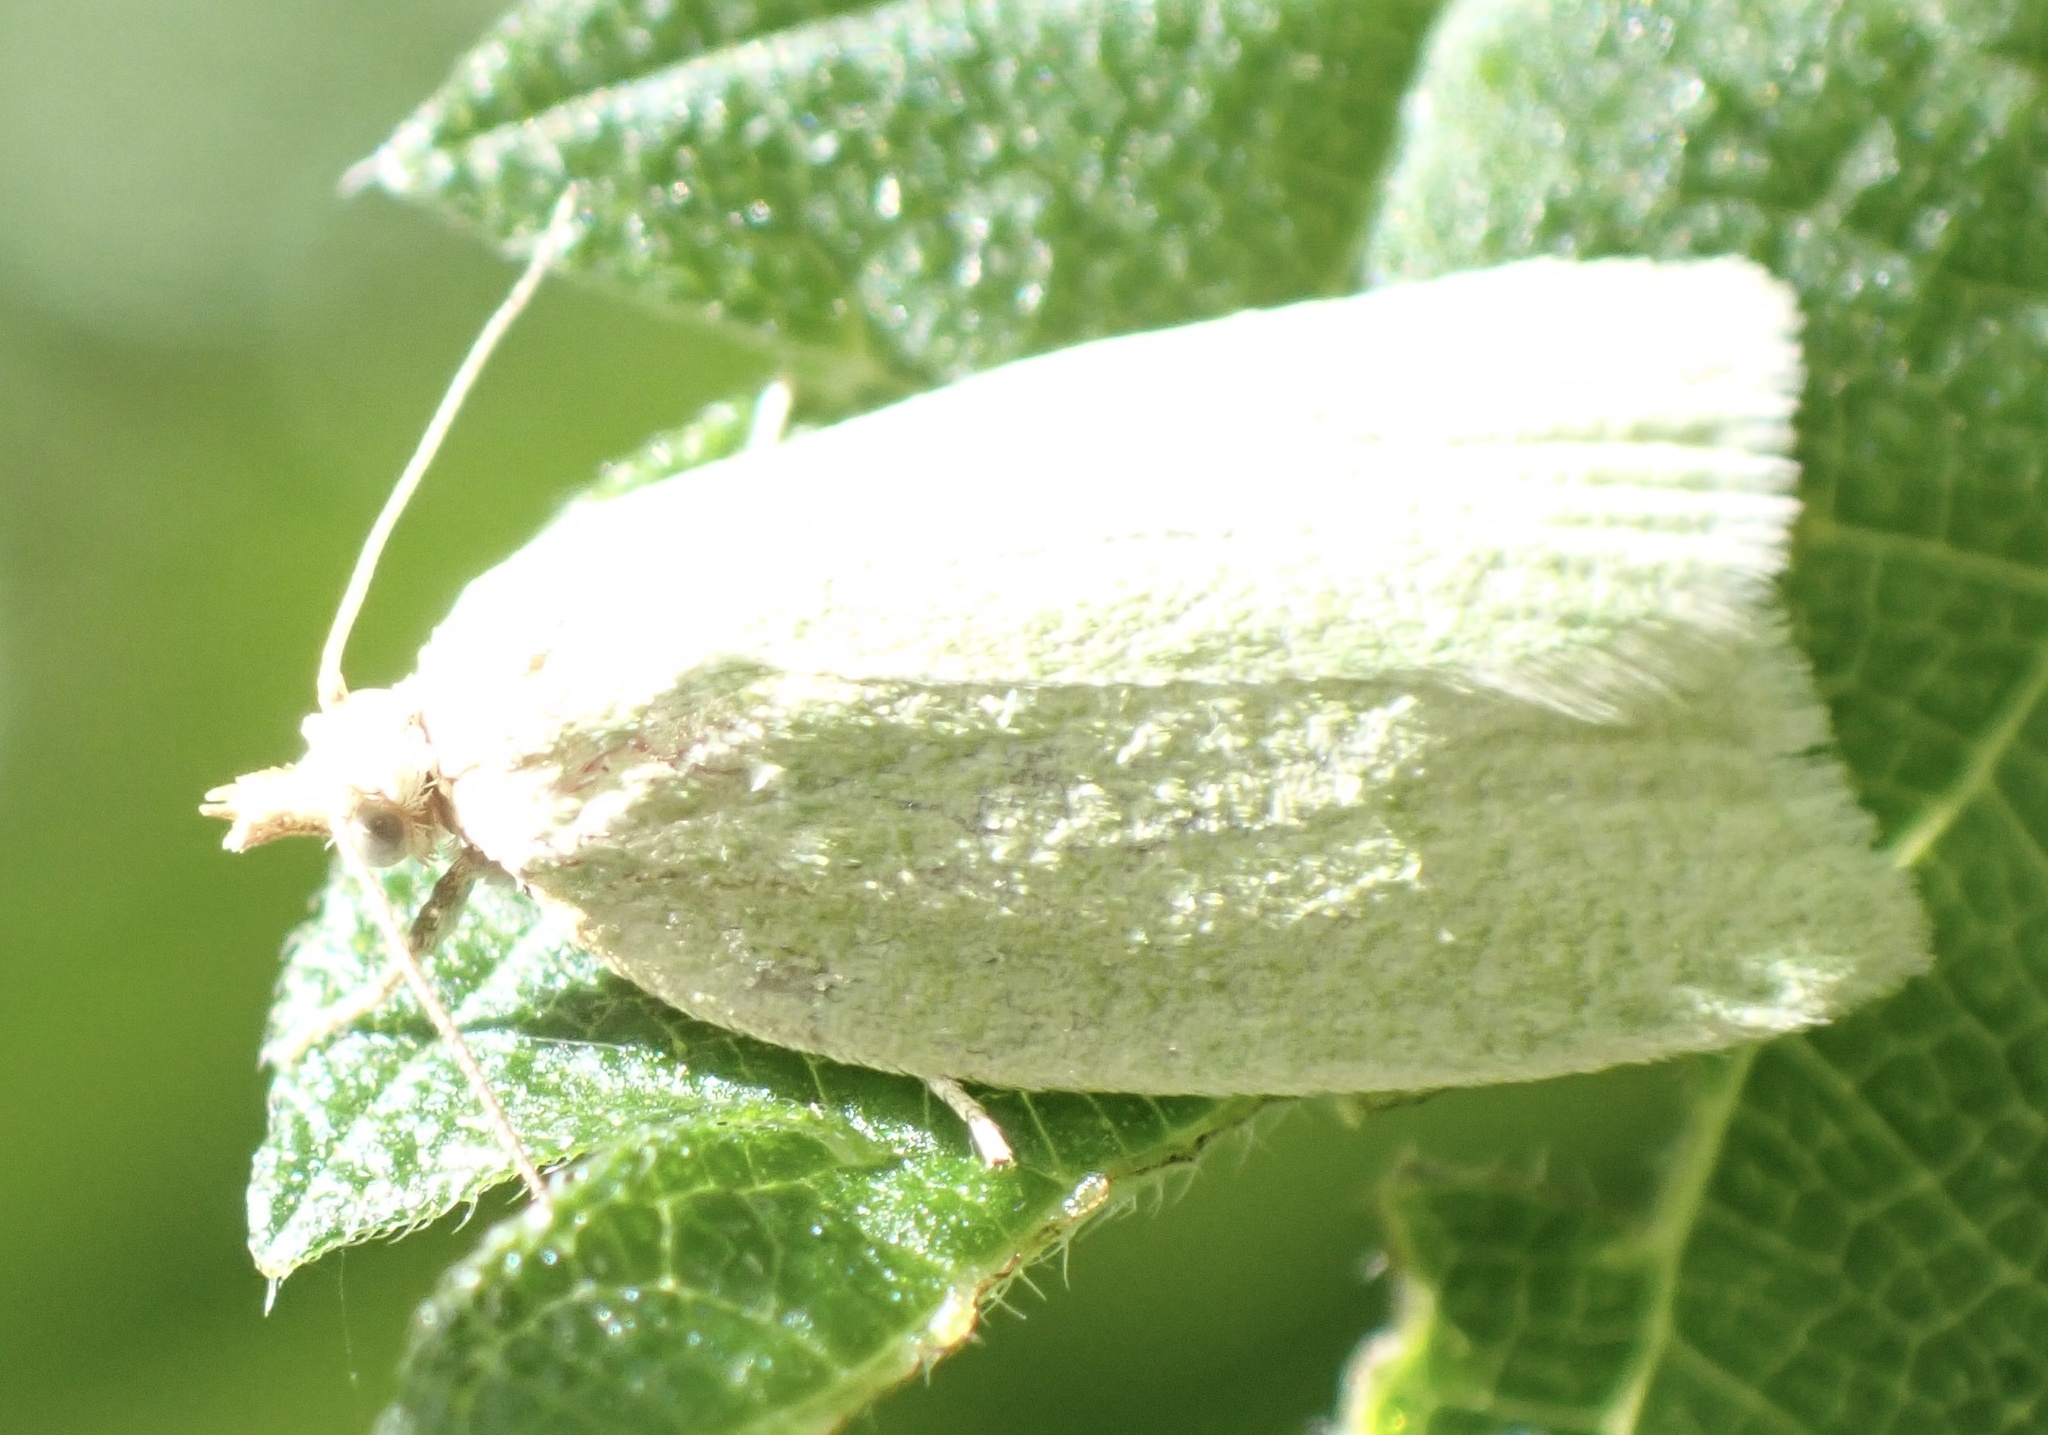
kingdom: Animalia
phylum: Arthropoda
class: Insecta
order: Lepidoptera
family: Tortricidae
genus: Tortrix
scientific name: Tortrix viridana
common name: Green oak tortrix
